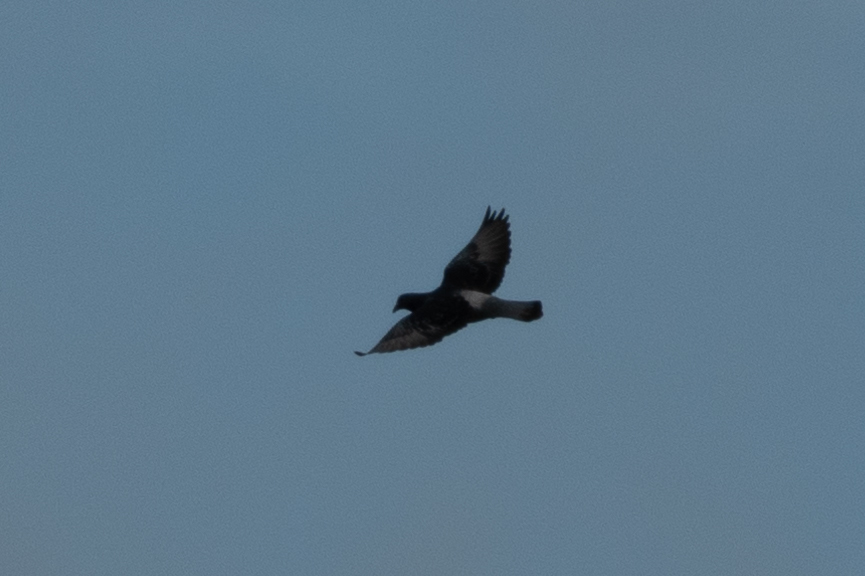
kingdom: Animalia
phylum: Chordata
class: Aves
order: Columbiformes
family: Columbidae
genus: Columba
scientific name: Columba livia
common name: Rock pigeon
